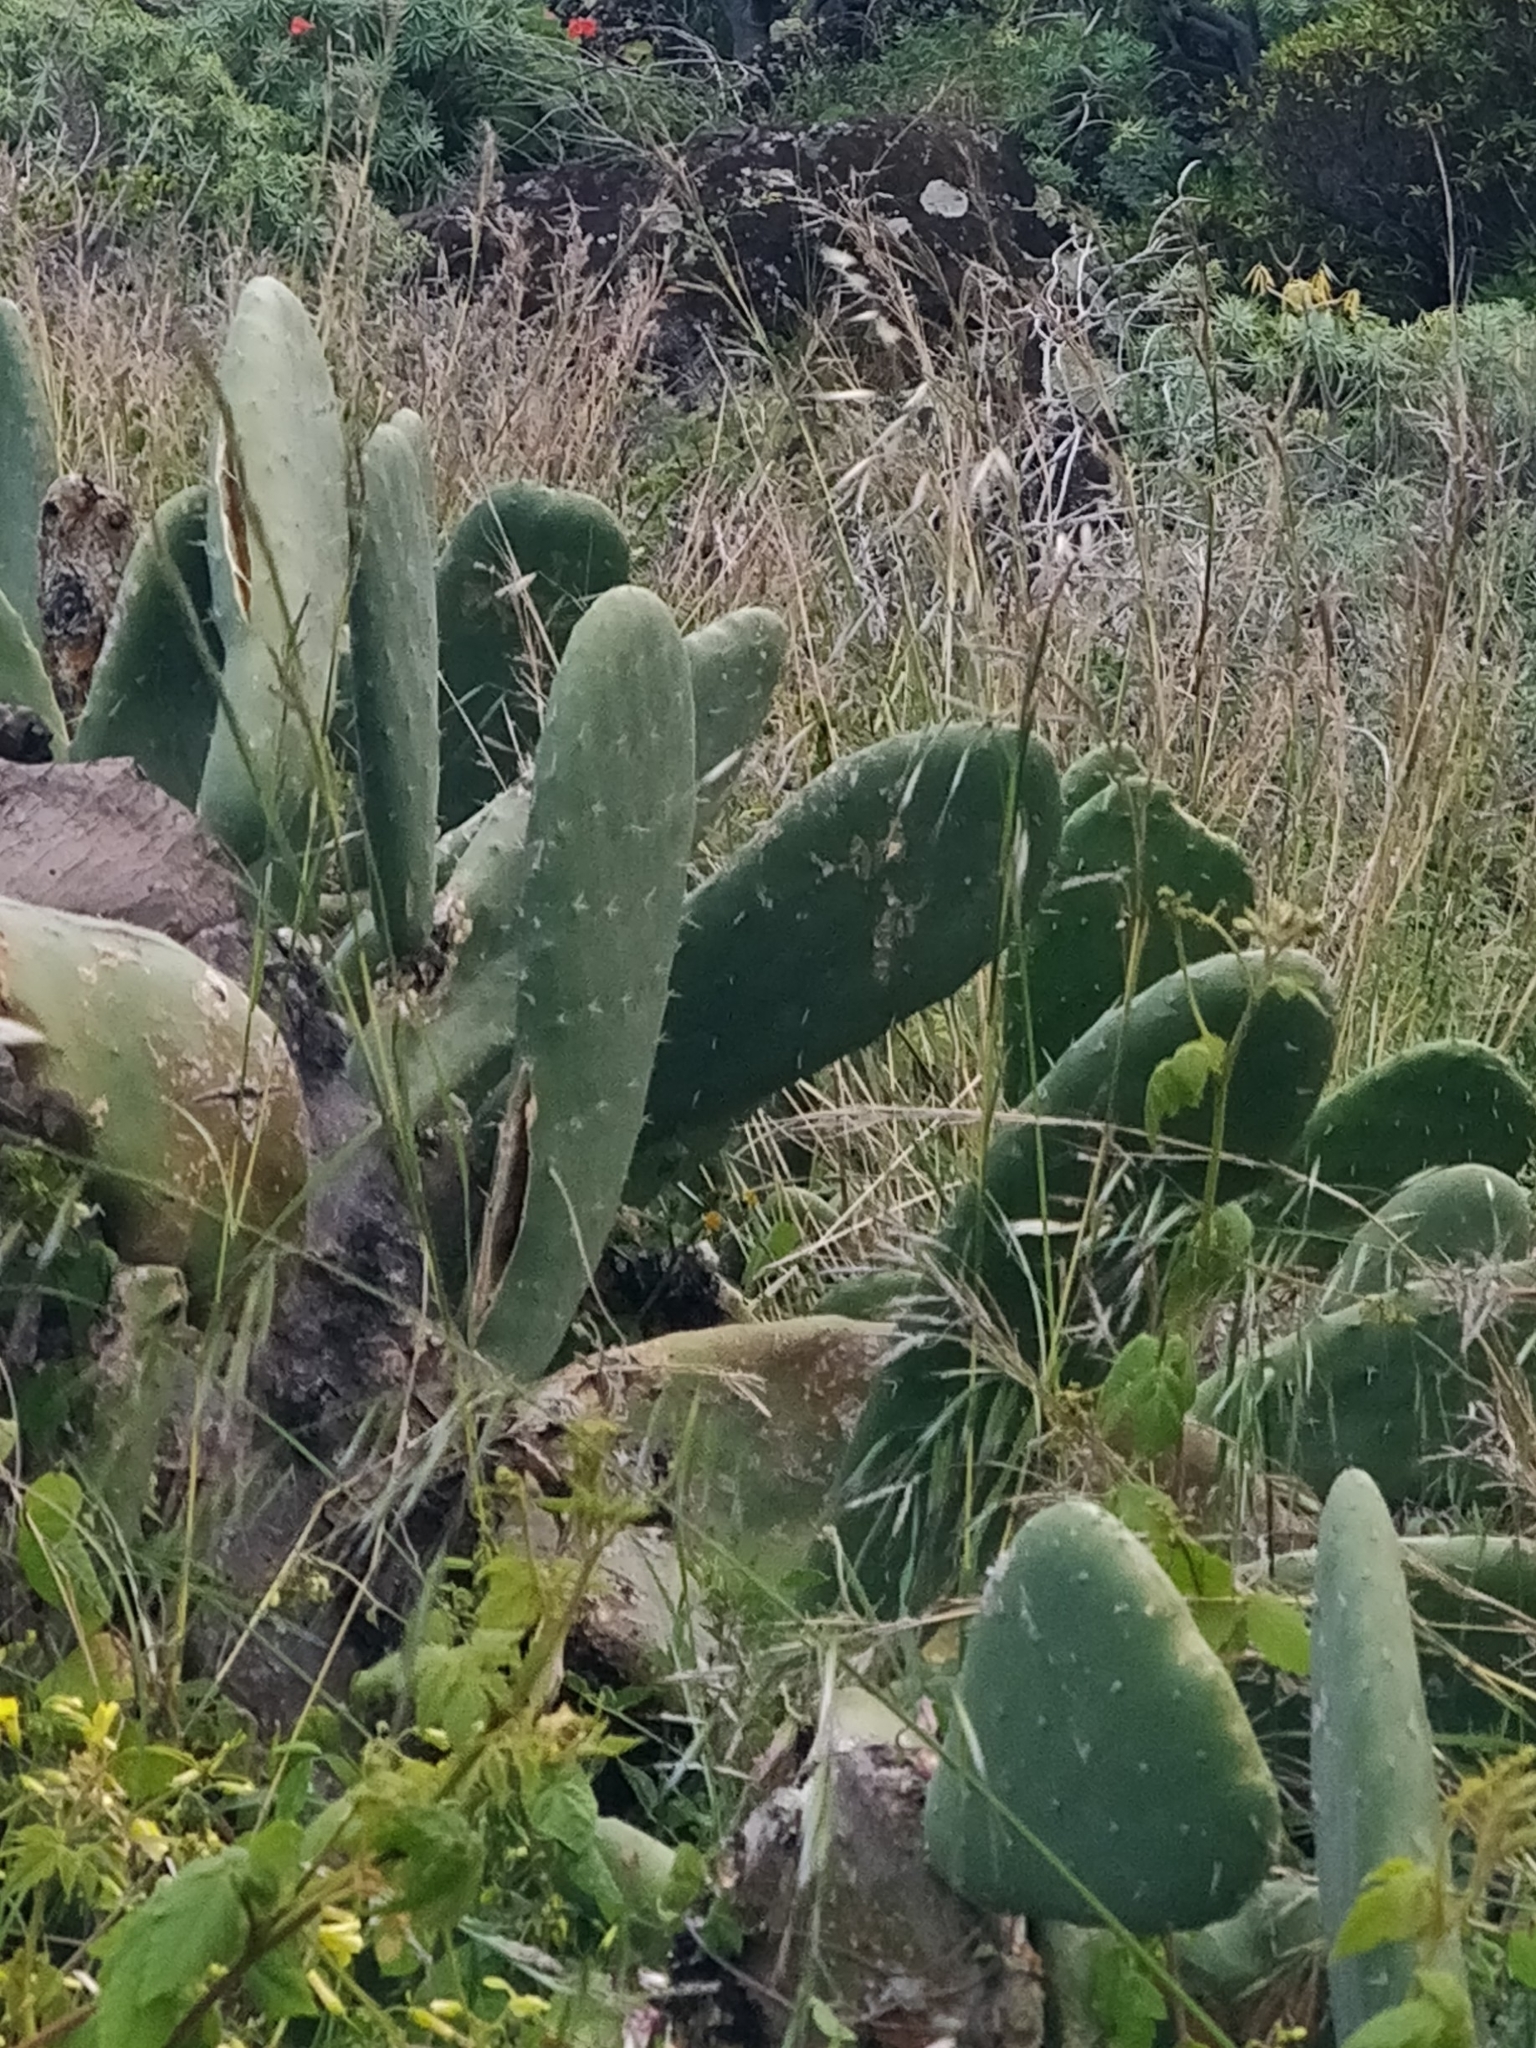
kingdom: Plantae
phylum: Tracheophyta
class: Magnoliopsida
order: Caryophyllales
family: Cactaceae
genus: Opuntia
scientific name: Opuntia ficus-indica
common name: Barbary fig
